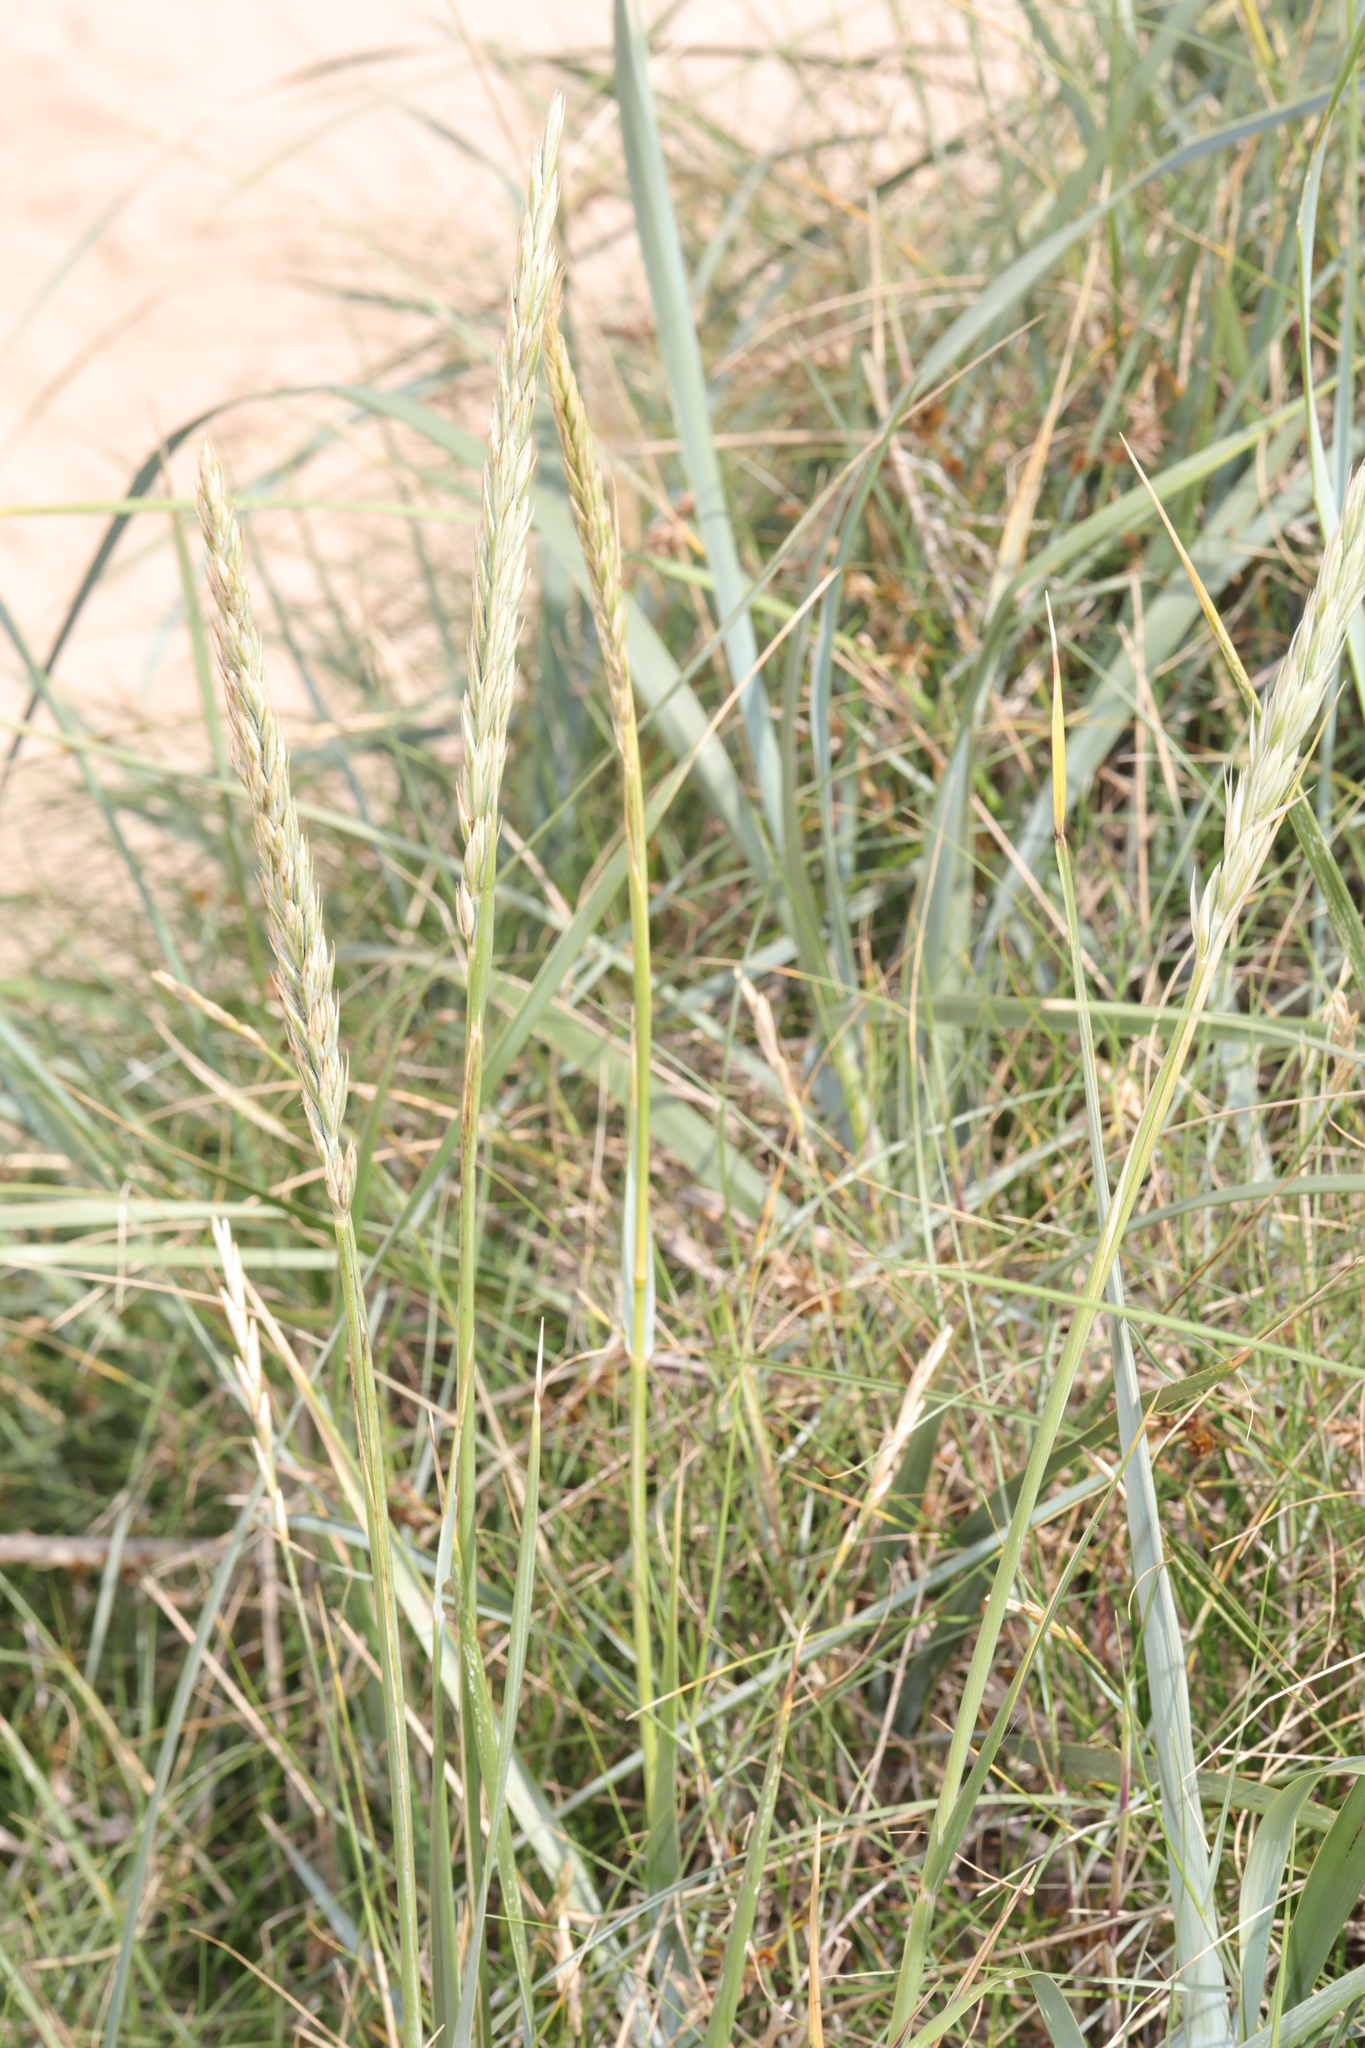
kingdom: Plantae
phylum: Tracheophyta
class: Liliopsida
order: Poales
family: Poaceae
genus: Leymus
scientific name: Leymus arenarius
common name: Lyme-grass
